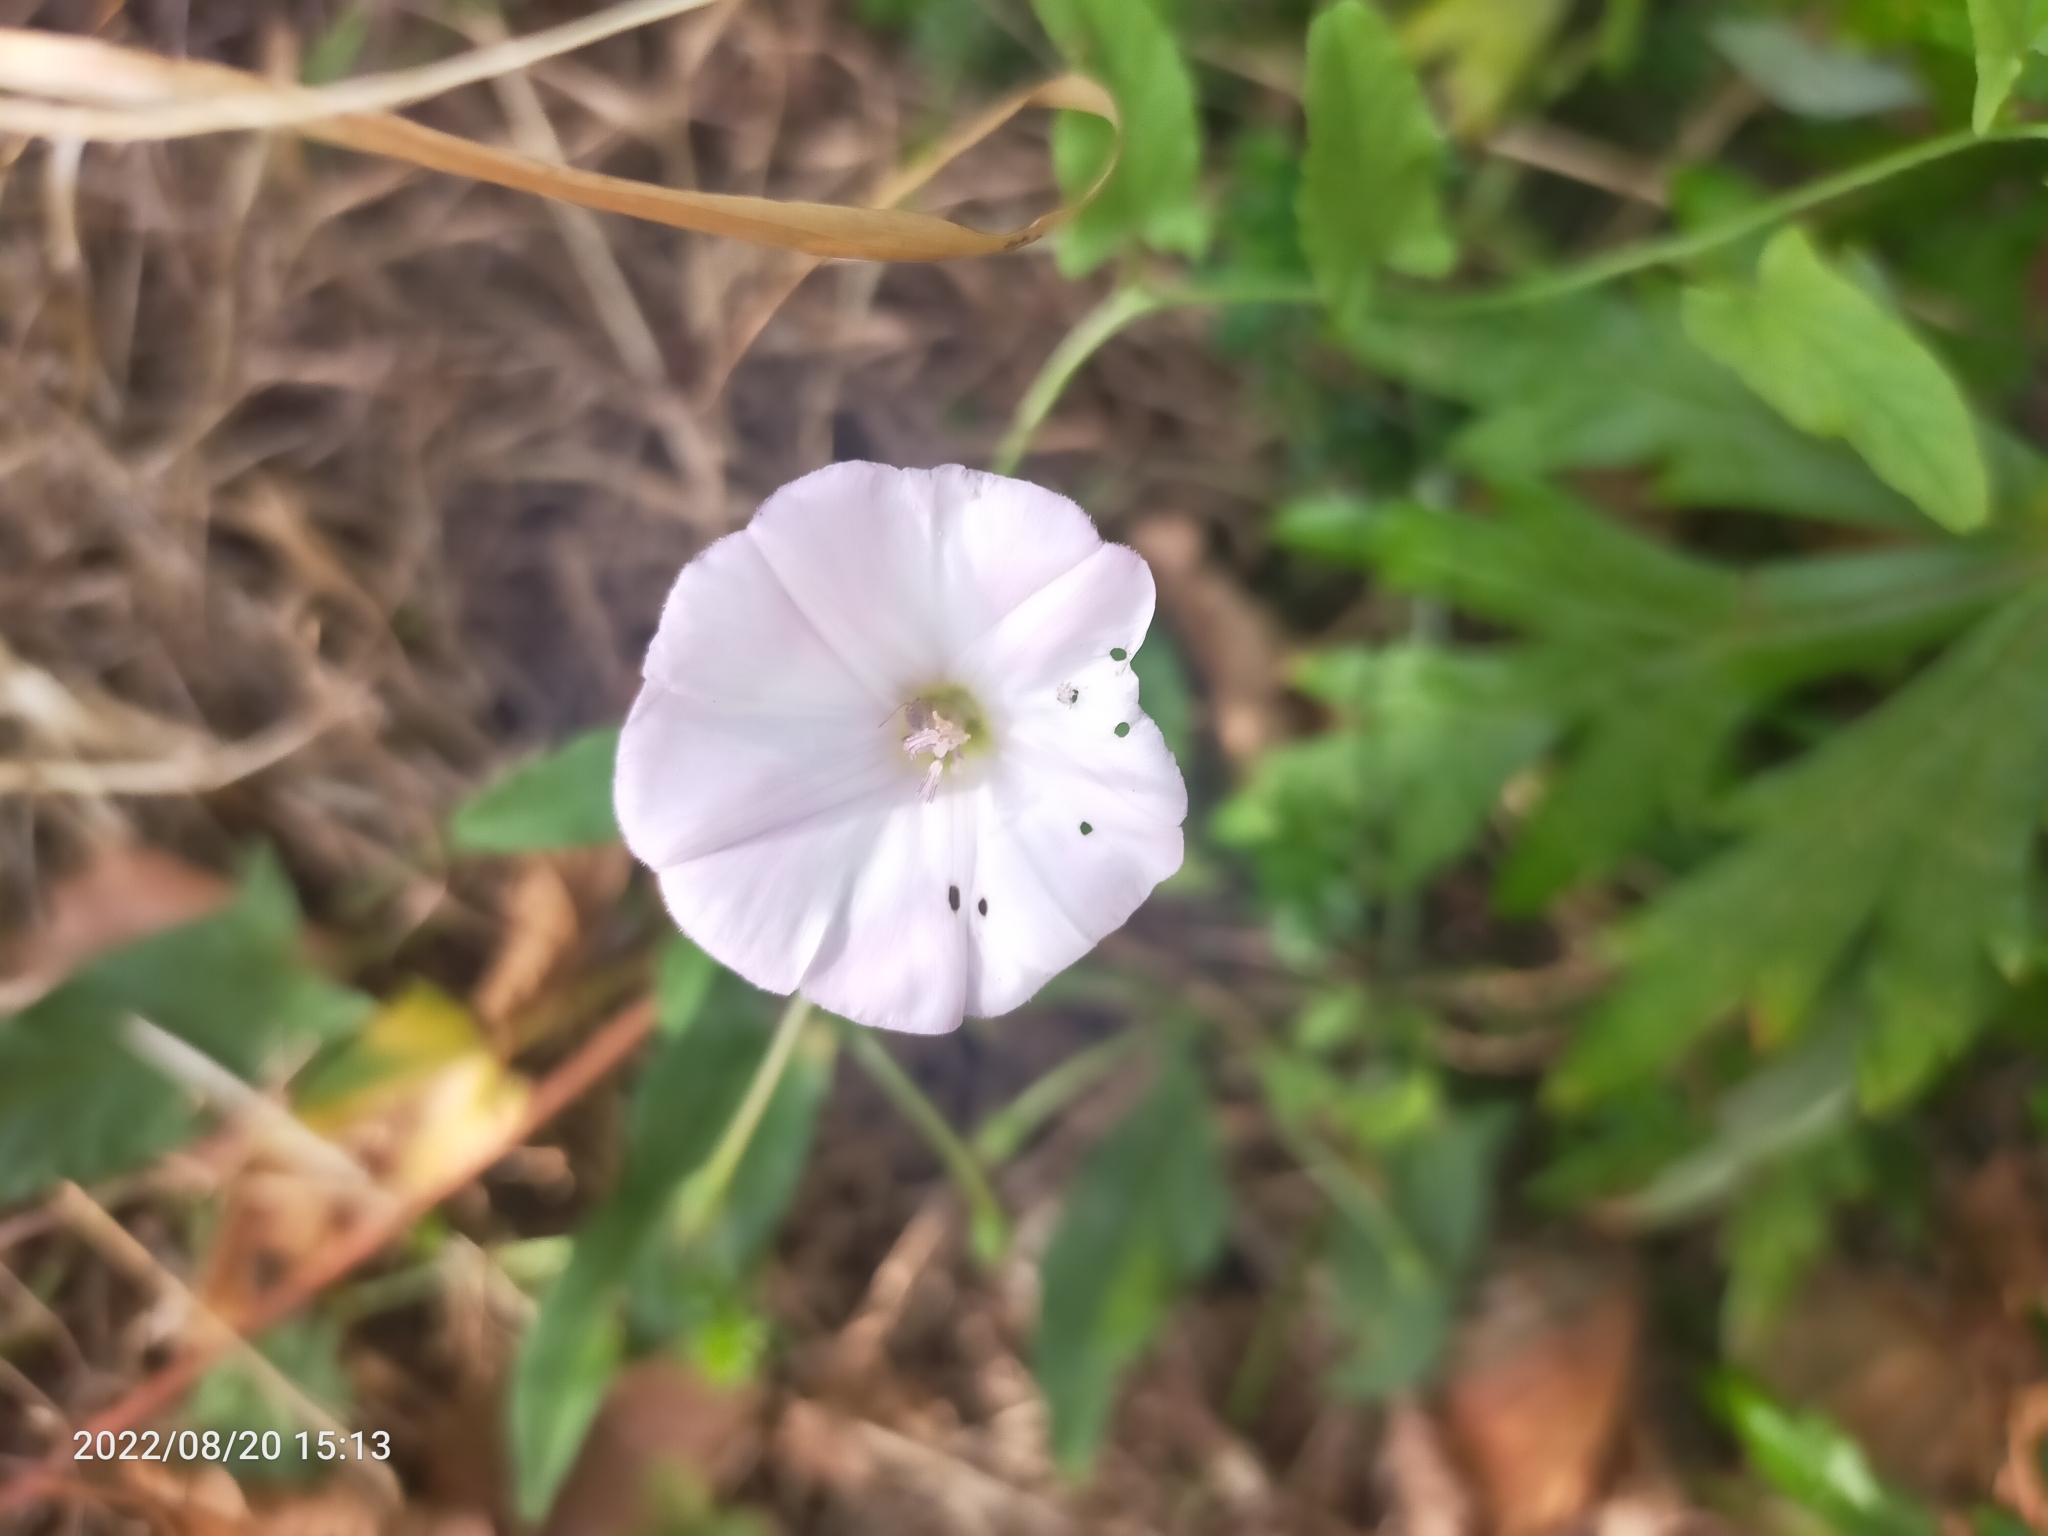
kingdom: Plantae
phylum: Tracheophyta
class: Magnoliopsida
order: Solanales
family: Convolvulaceae
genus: Convolvulus
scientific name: Convolvulus arvensis
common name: Field bindweed
